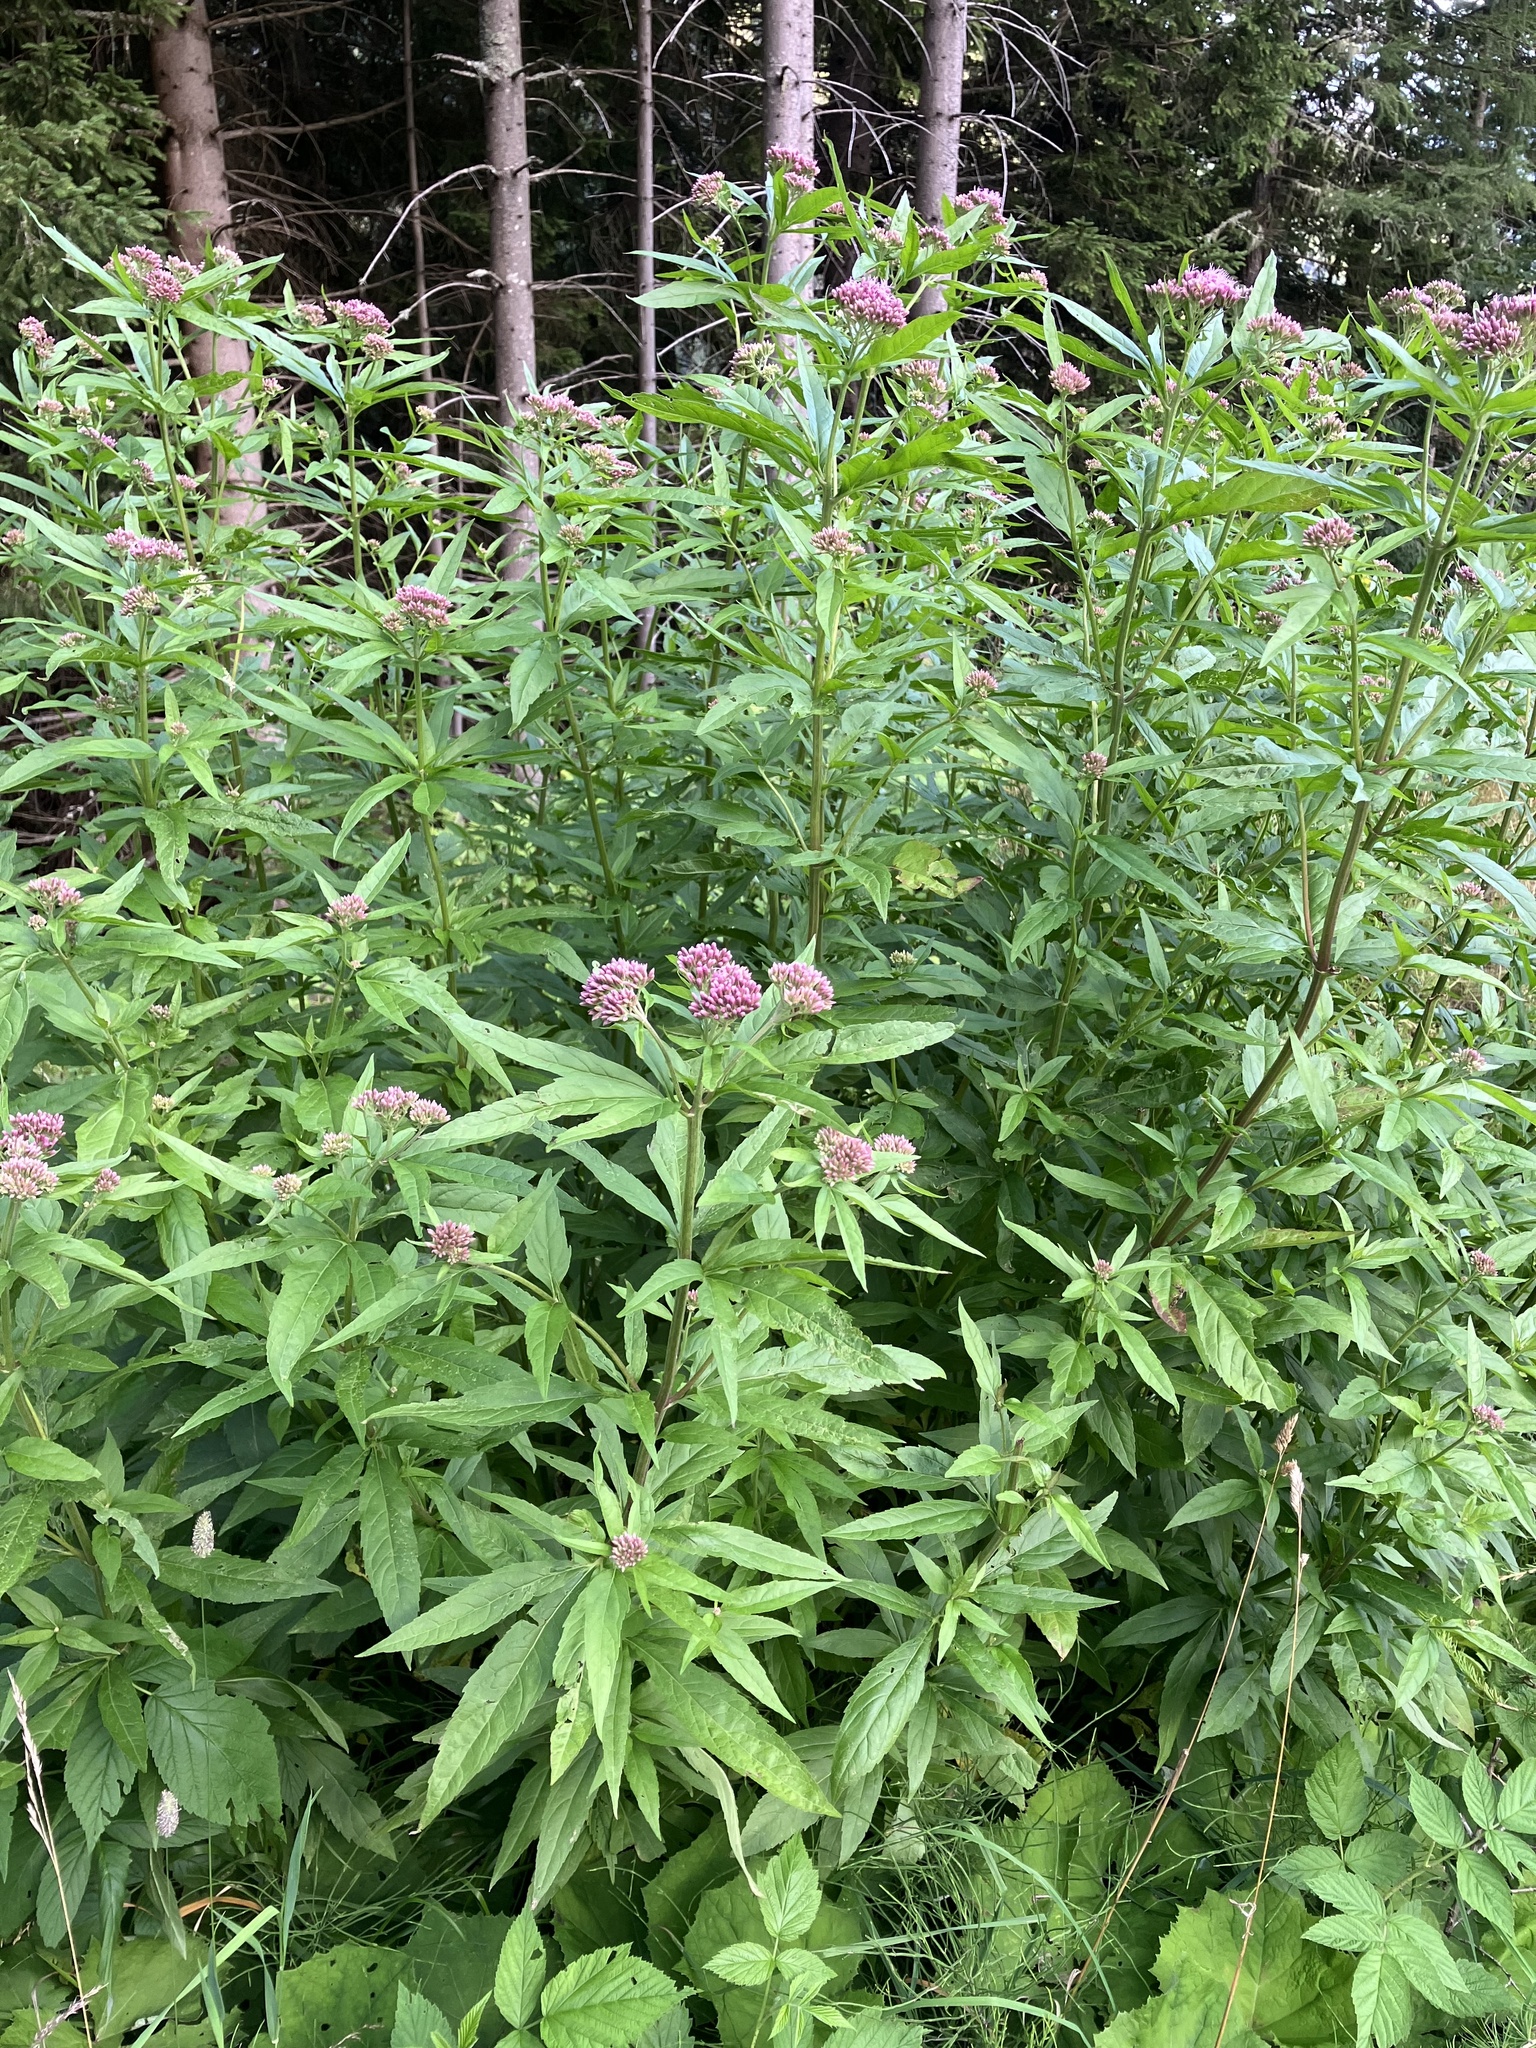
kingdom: Plantae
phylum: Tracheophyta
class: Magnoliopsida
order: Asterales
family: Asteraceae
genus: Eupatorium
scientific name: Eupatorium cannabinum
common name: Hemp-agrimony
